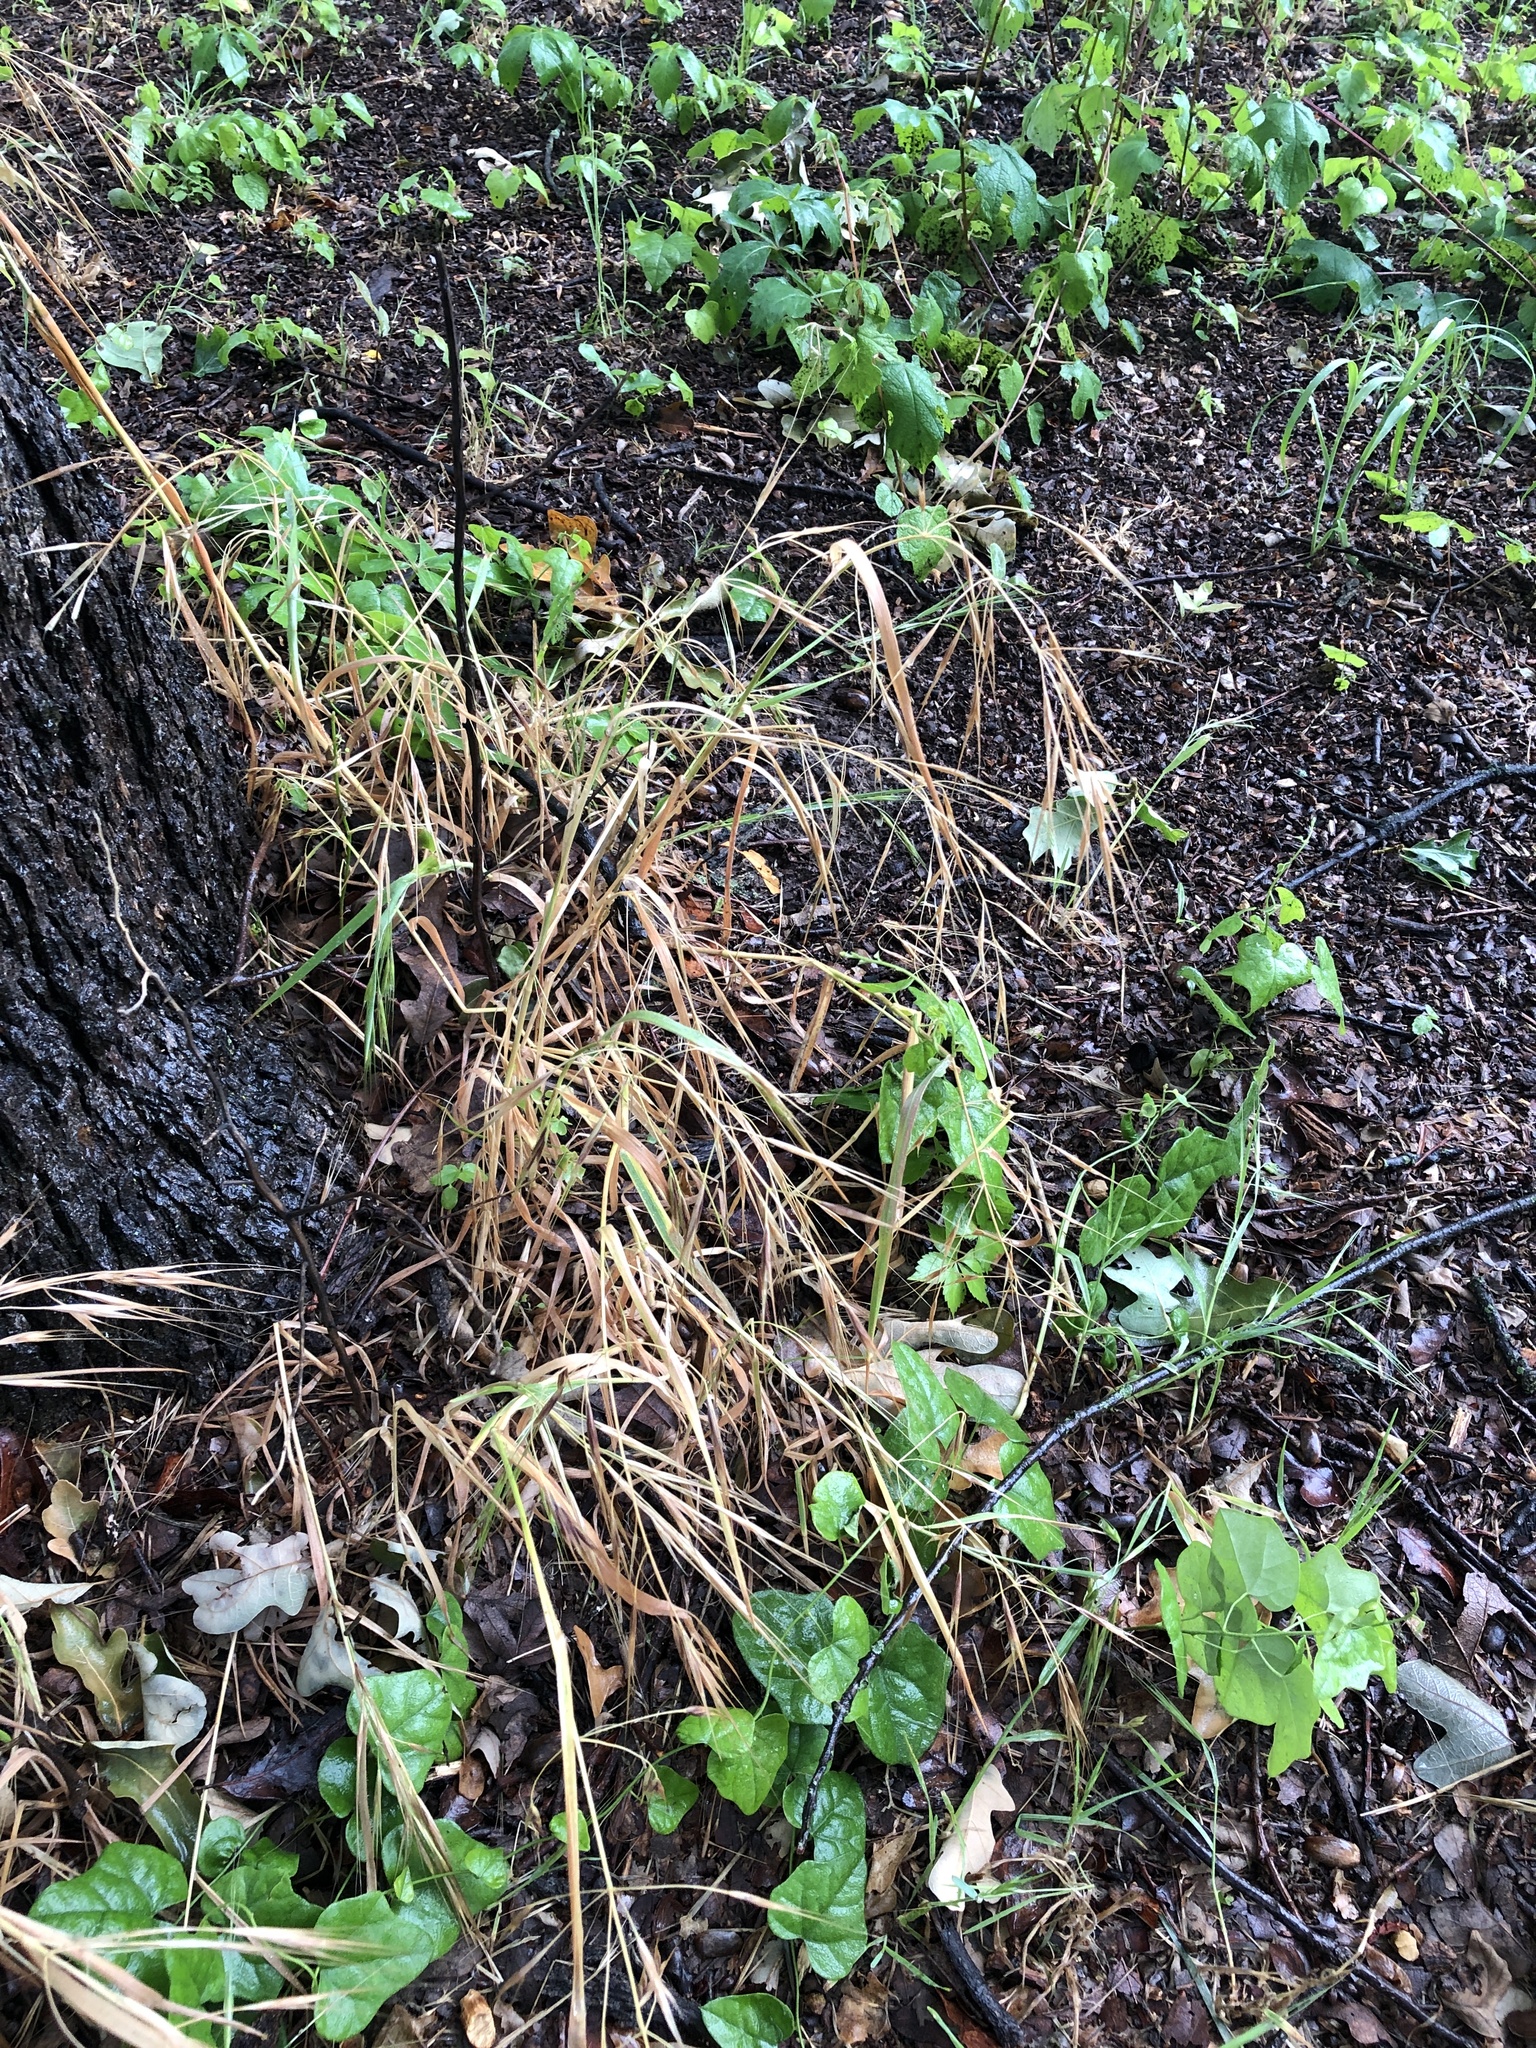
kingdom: Plantae
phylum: Tracheophyta
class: Liliopsida
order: Poales
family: Poaceae
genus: Bromus
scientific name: Bromus diandrus
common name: Ripgut brome
